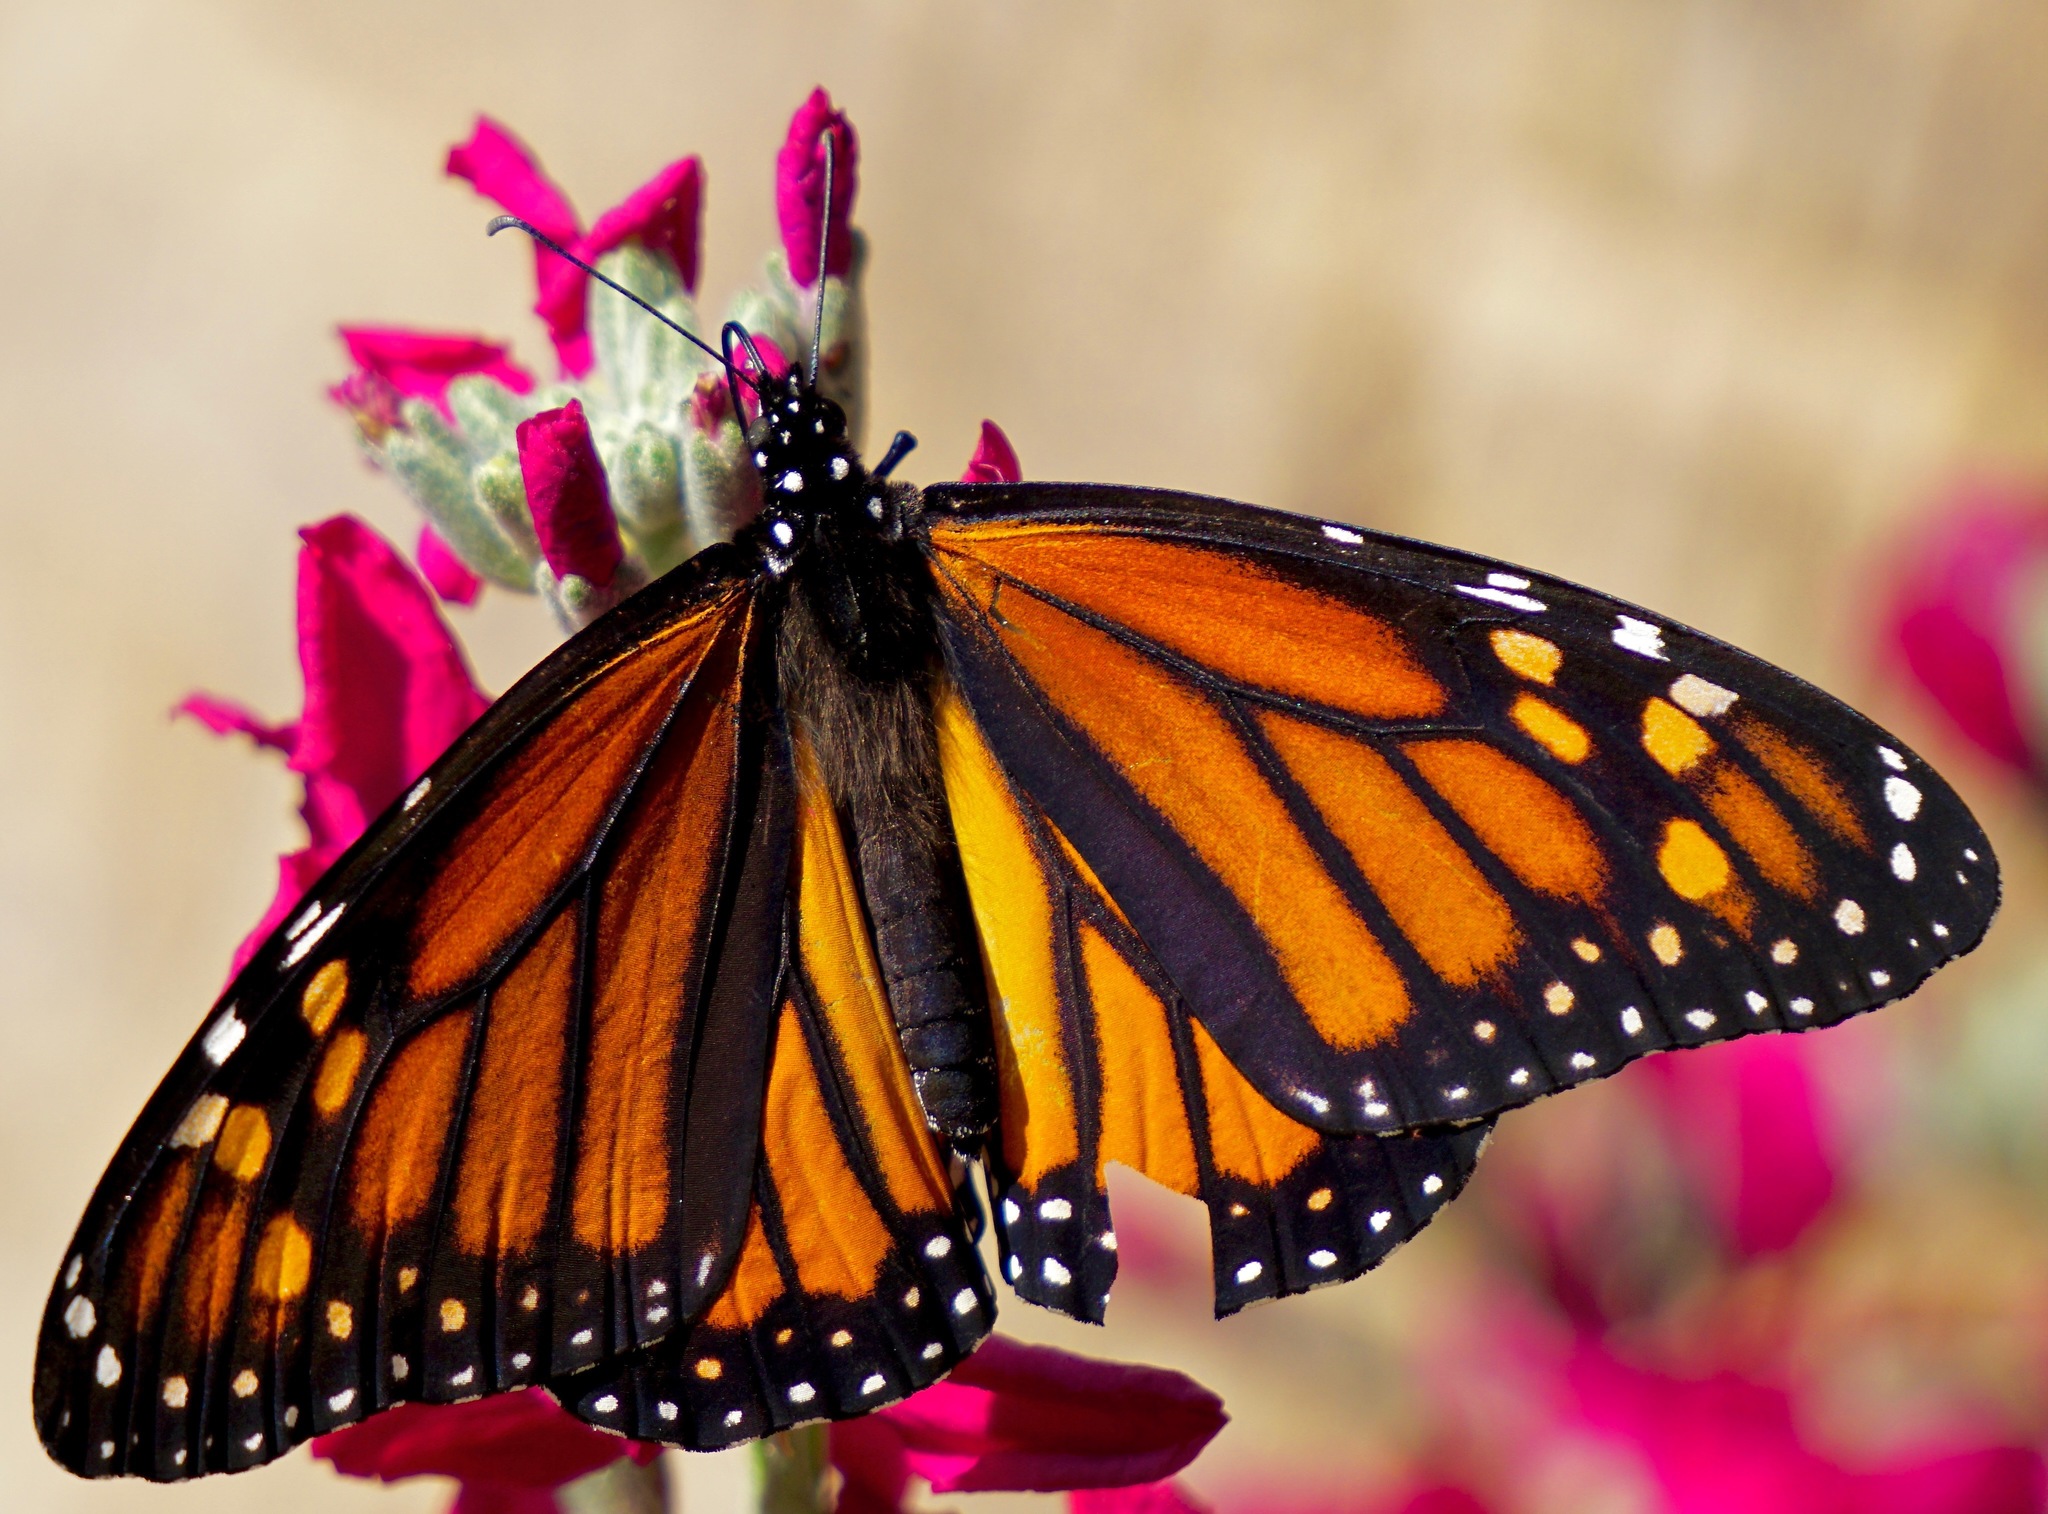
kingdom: Animalia
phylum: Arthropoda
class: Insecta
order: Lepidoptera
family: Nymphalidae
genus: Danaus
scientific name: Danaus plexippus
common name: Monarch
